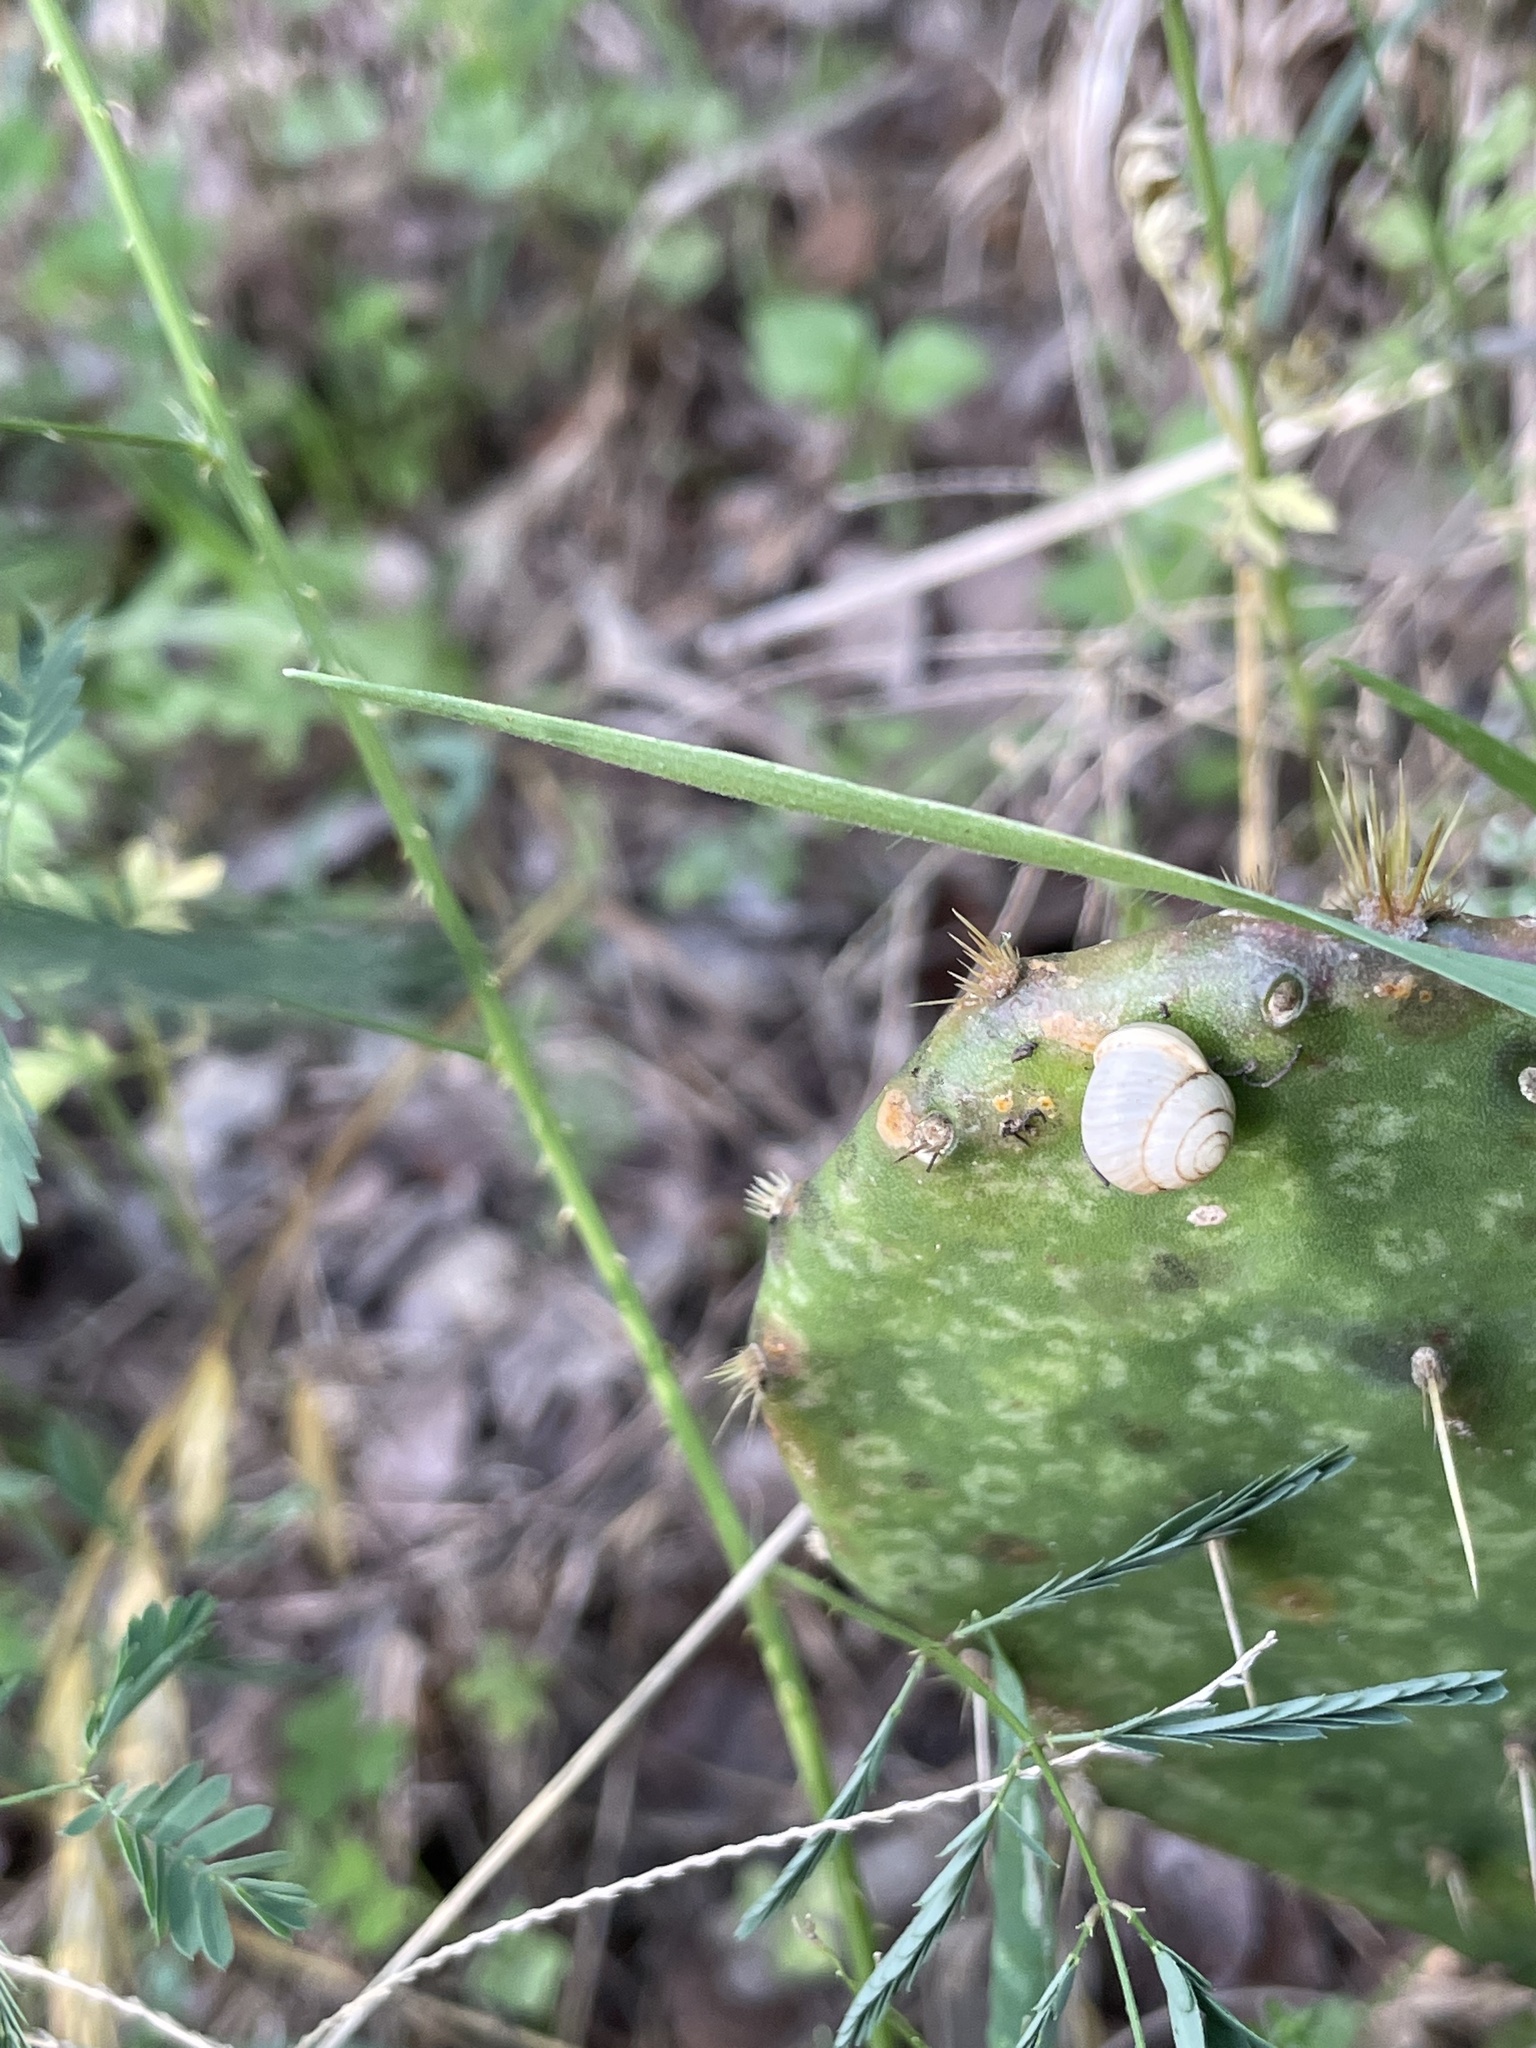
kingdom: Animalia
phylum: Mollusca
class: Gastropoda
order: Cycloneritida
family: Helicinidae
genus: Helicina
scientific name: Helicina orbiculata
